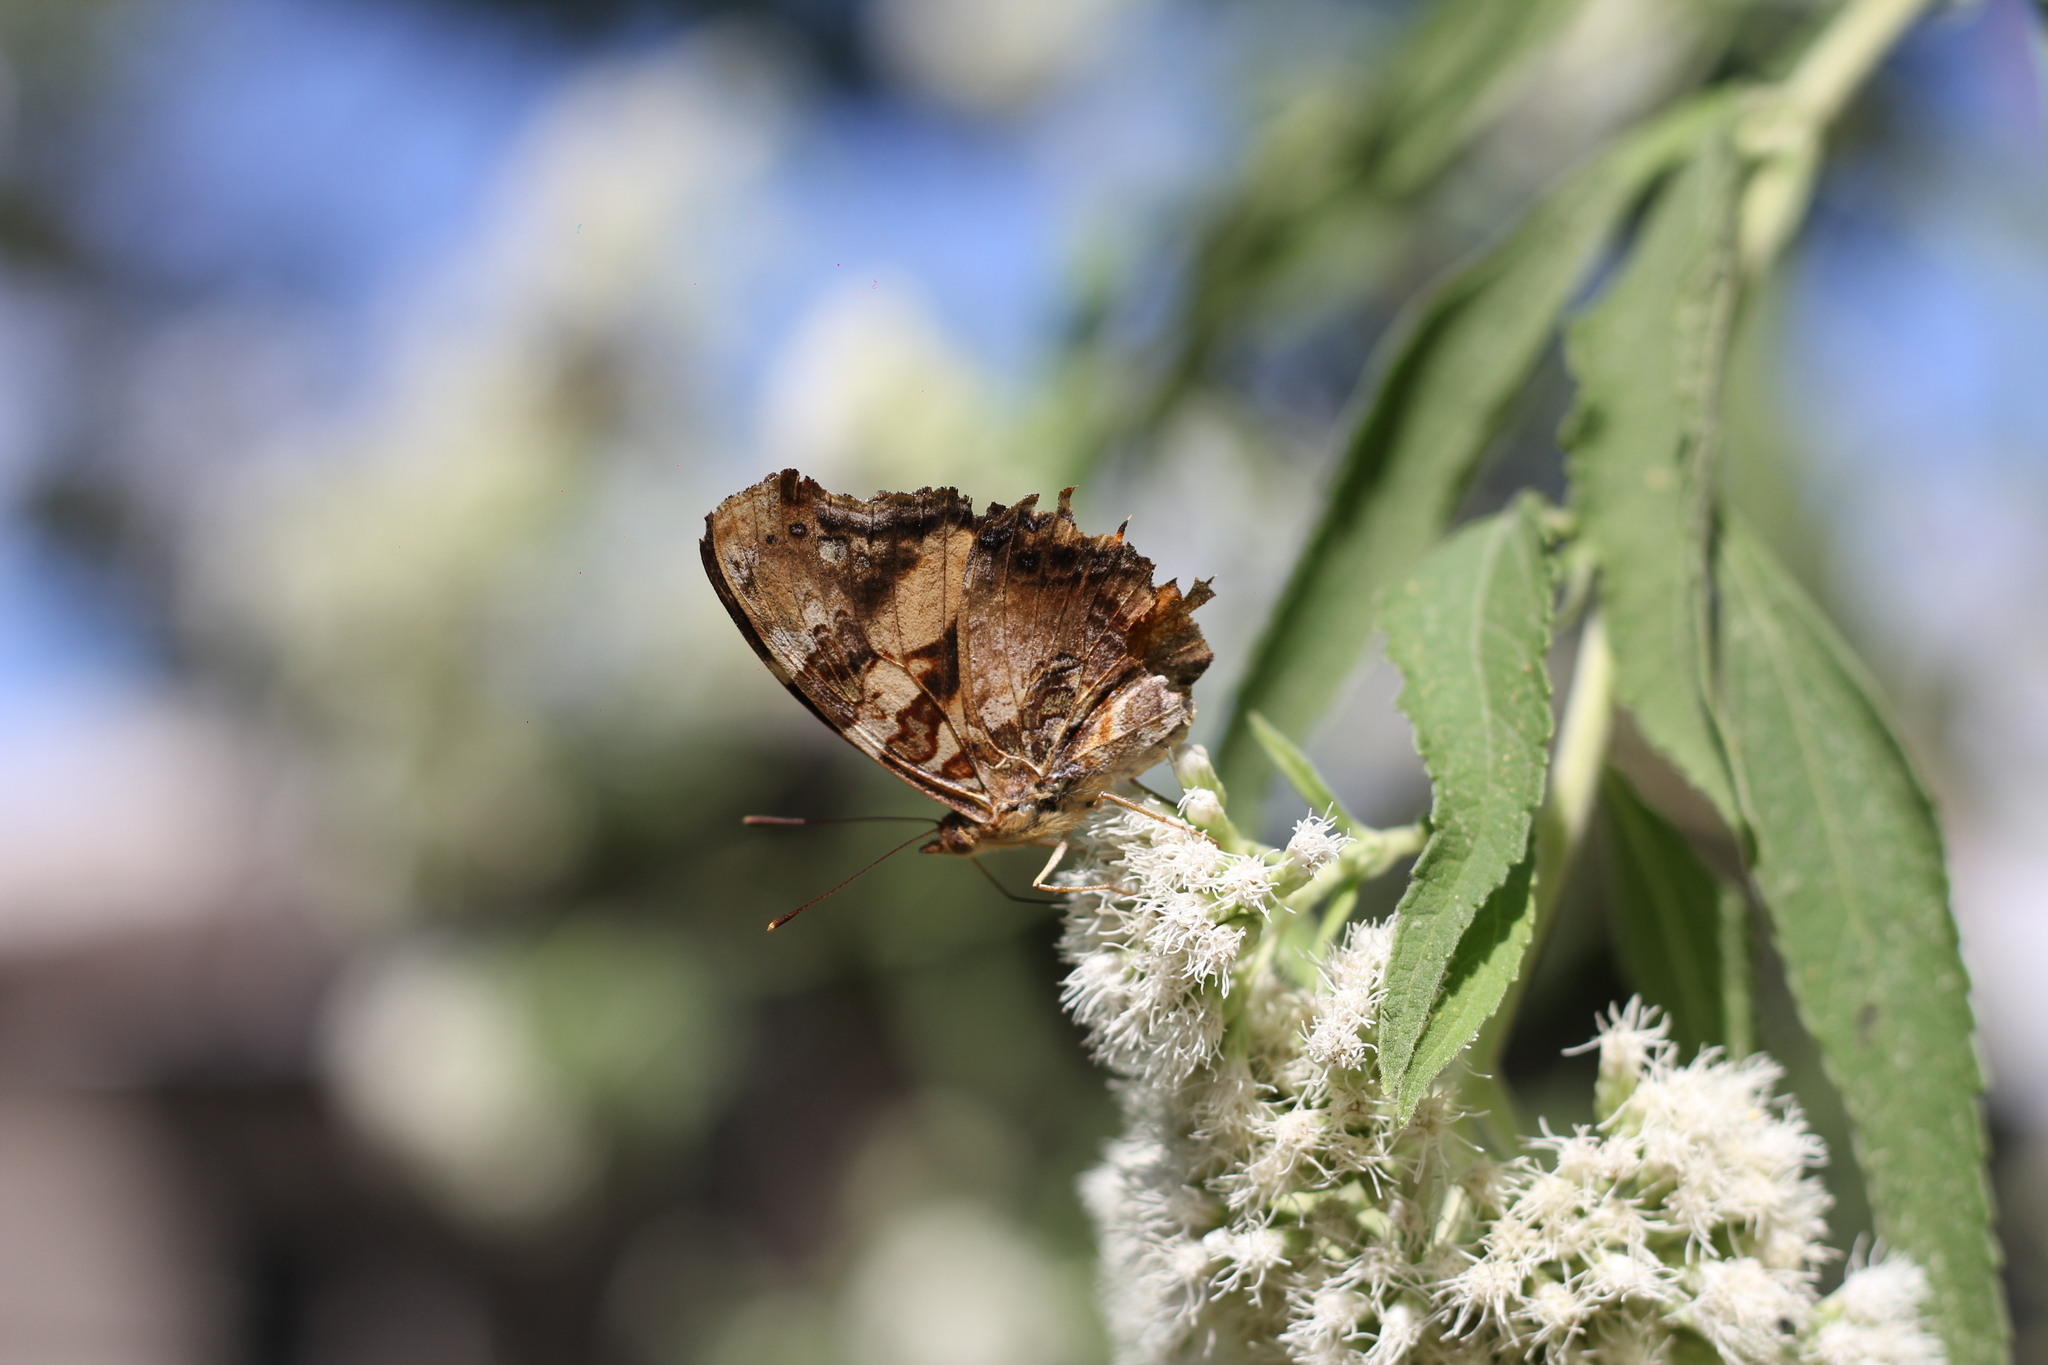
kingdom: Animalia
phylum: Arthropoda
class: Insecta
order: Lepidoptera
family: Nymphalidae
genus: Hypanartia
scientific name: Hypanartia bella
